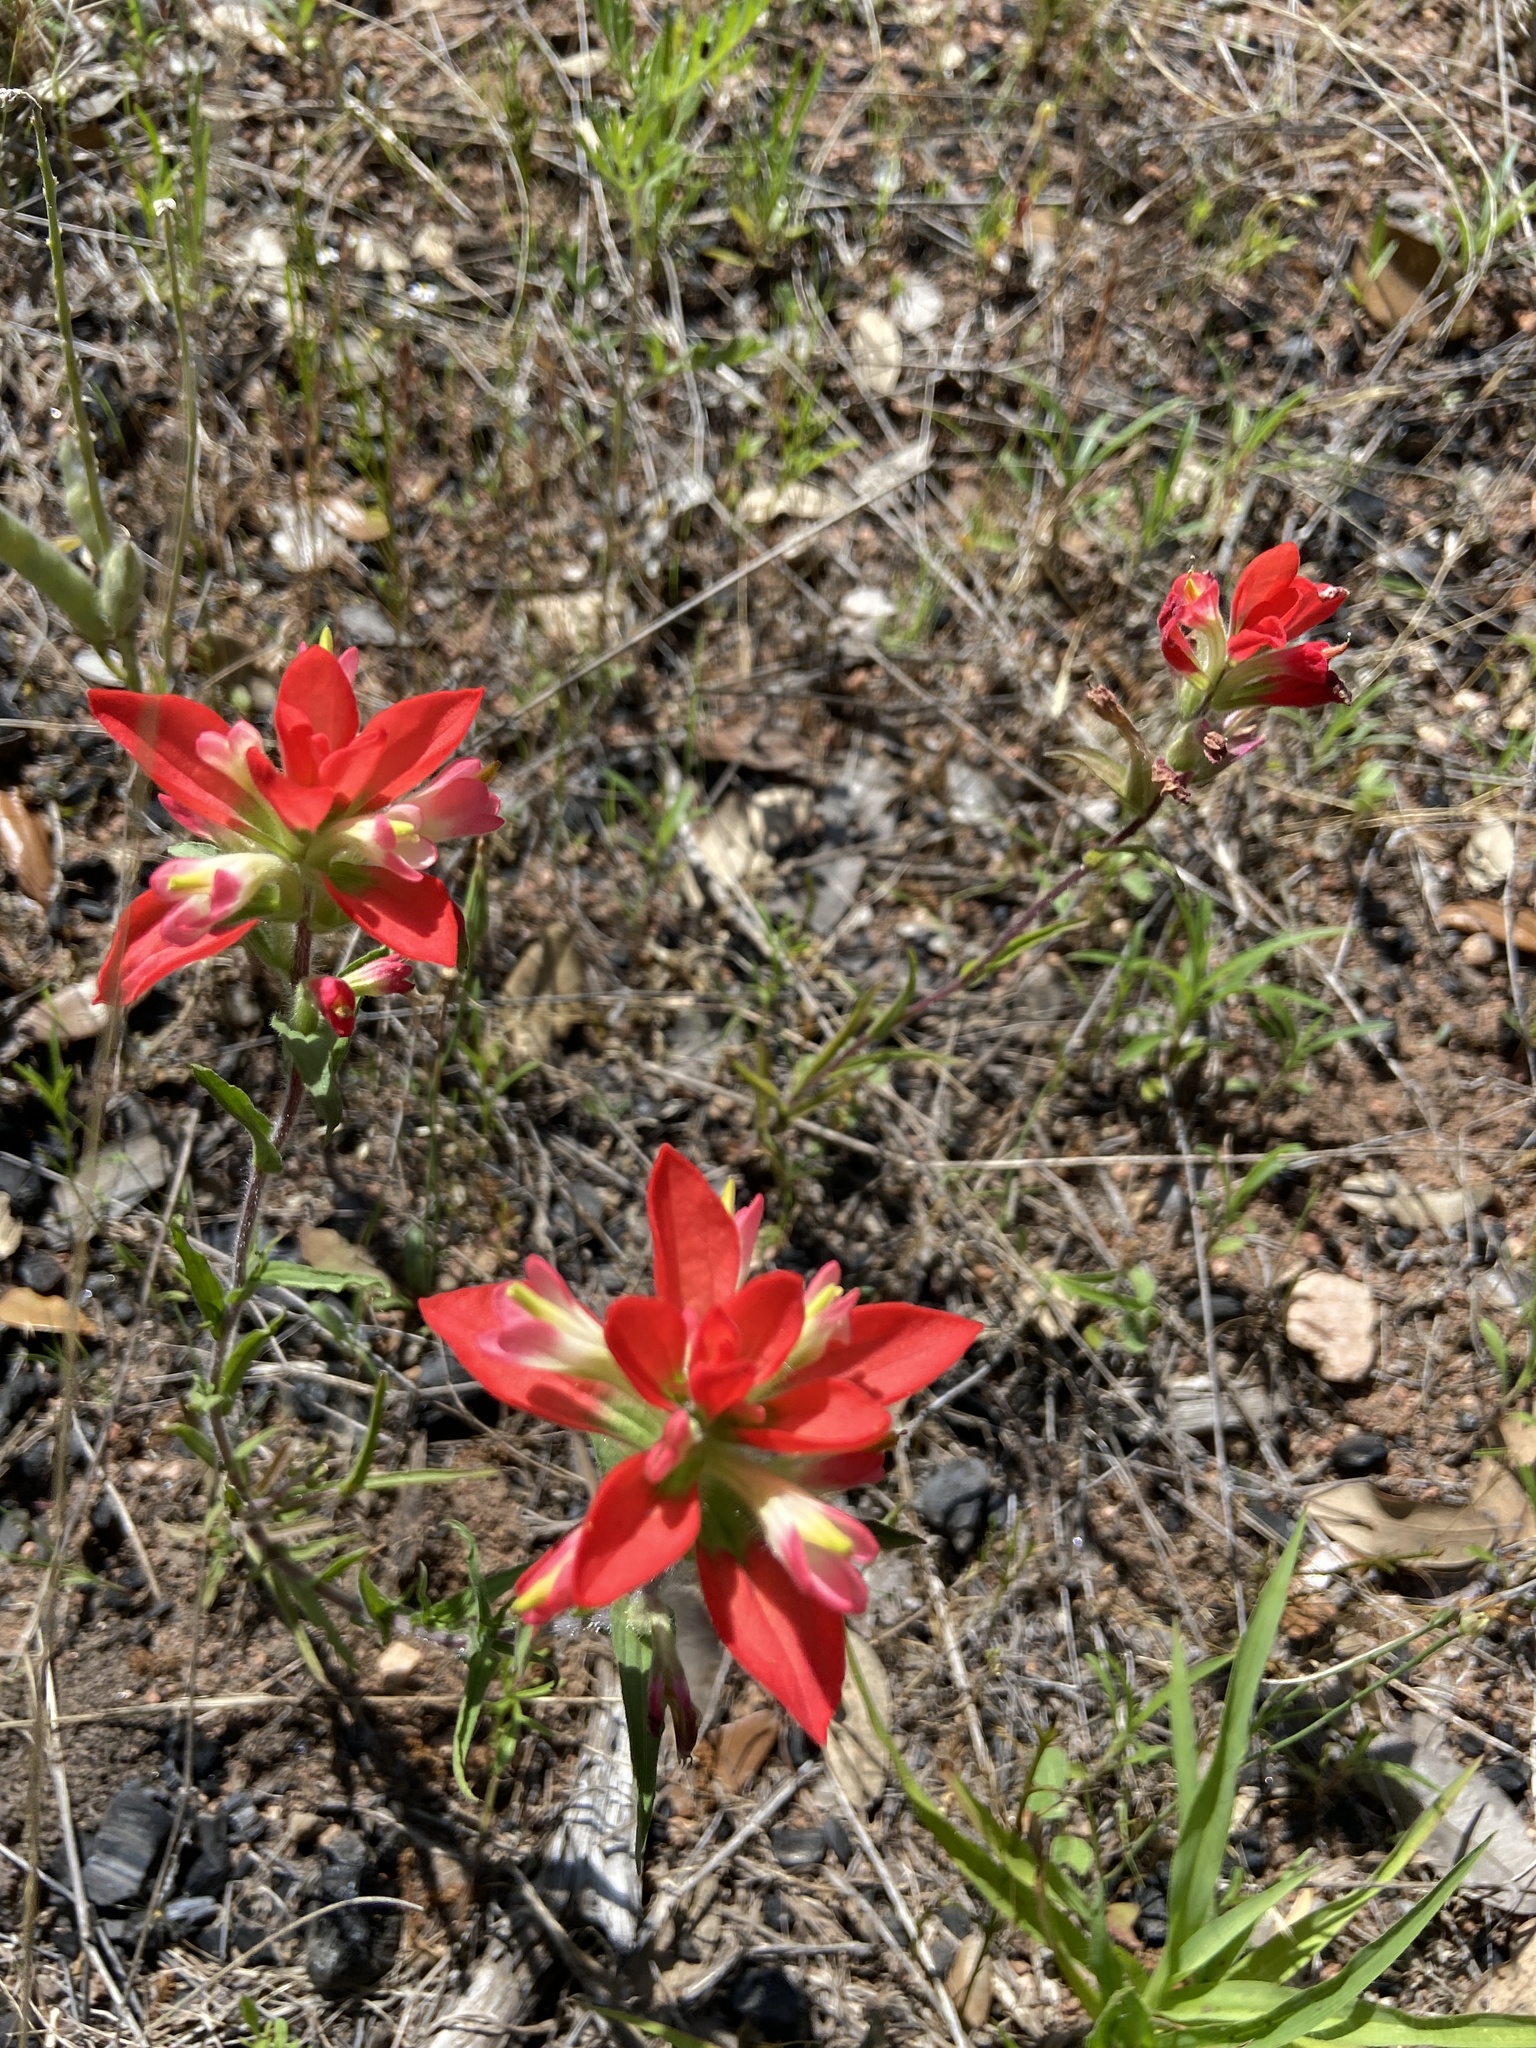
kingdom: Plantae
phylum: Tracheophyta
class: Magnoliopsida
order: Lamiales
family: Orobanchaceae
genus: Castilleja
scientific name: Castilleja indivisa
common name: Texas paintbrush
